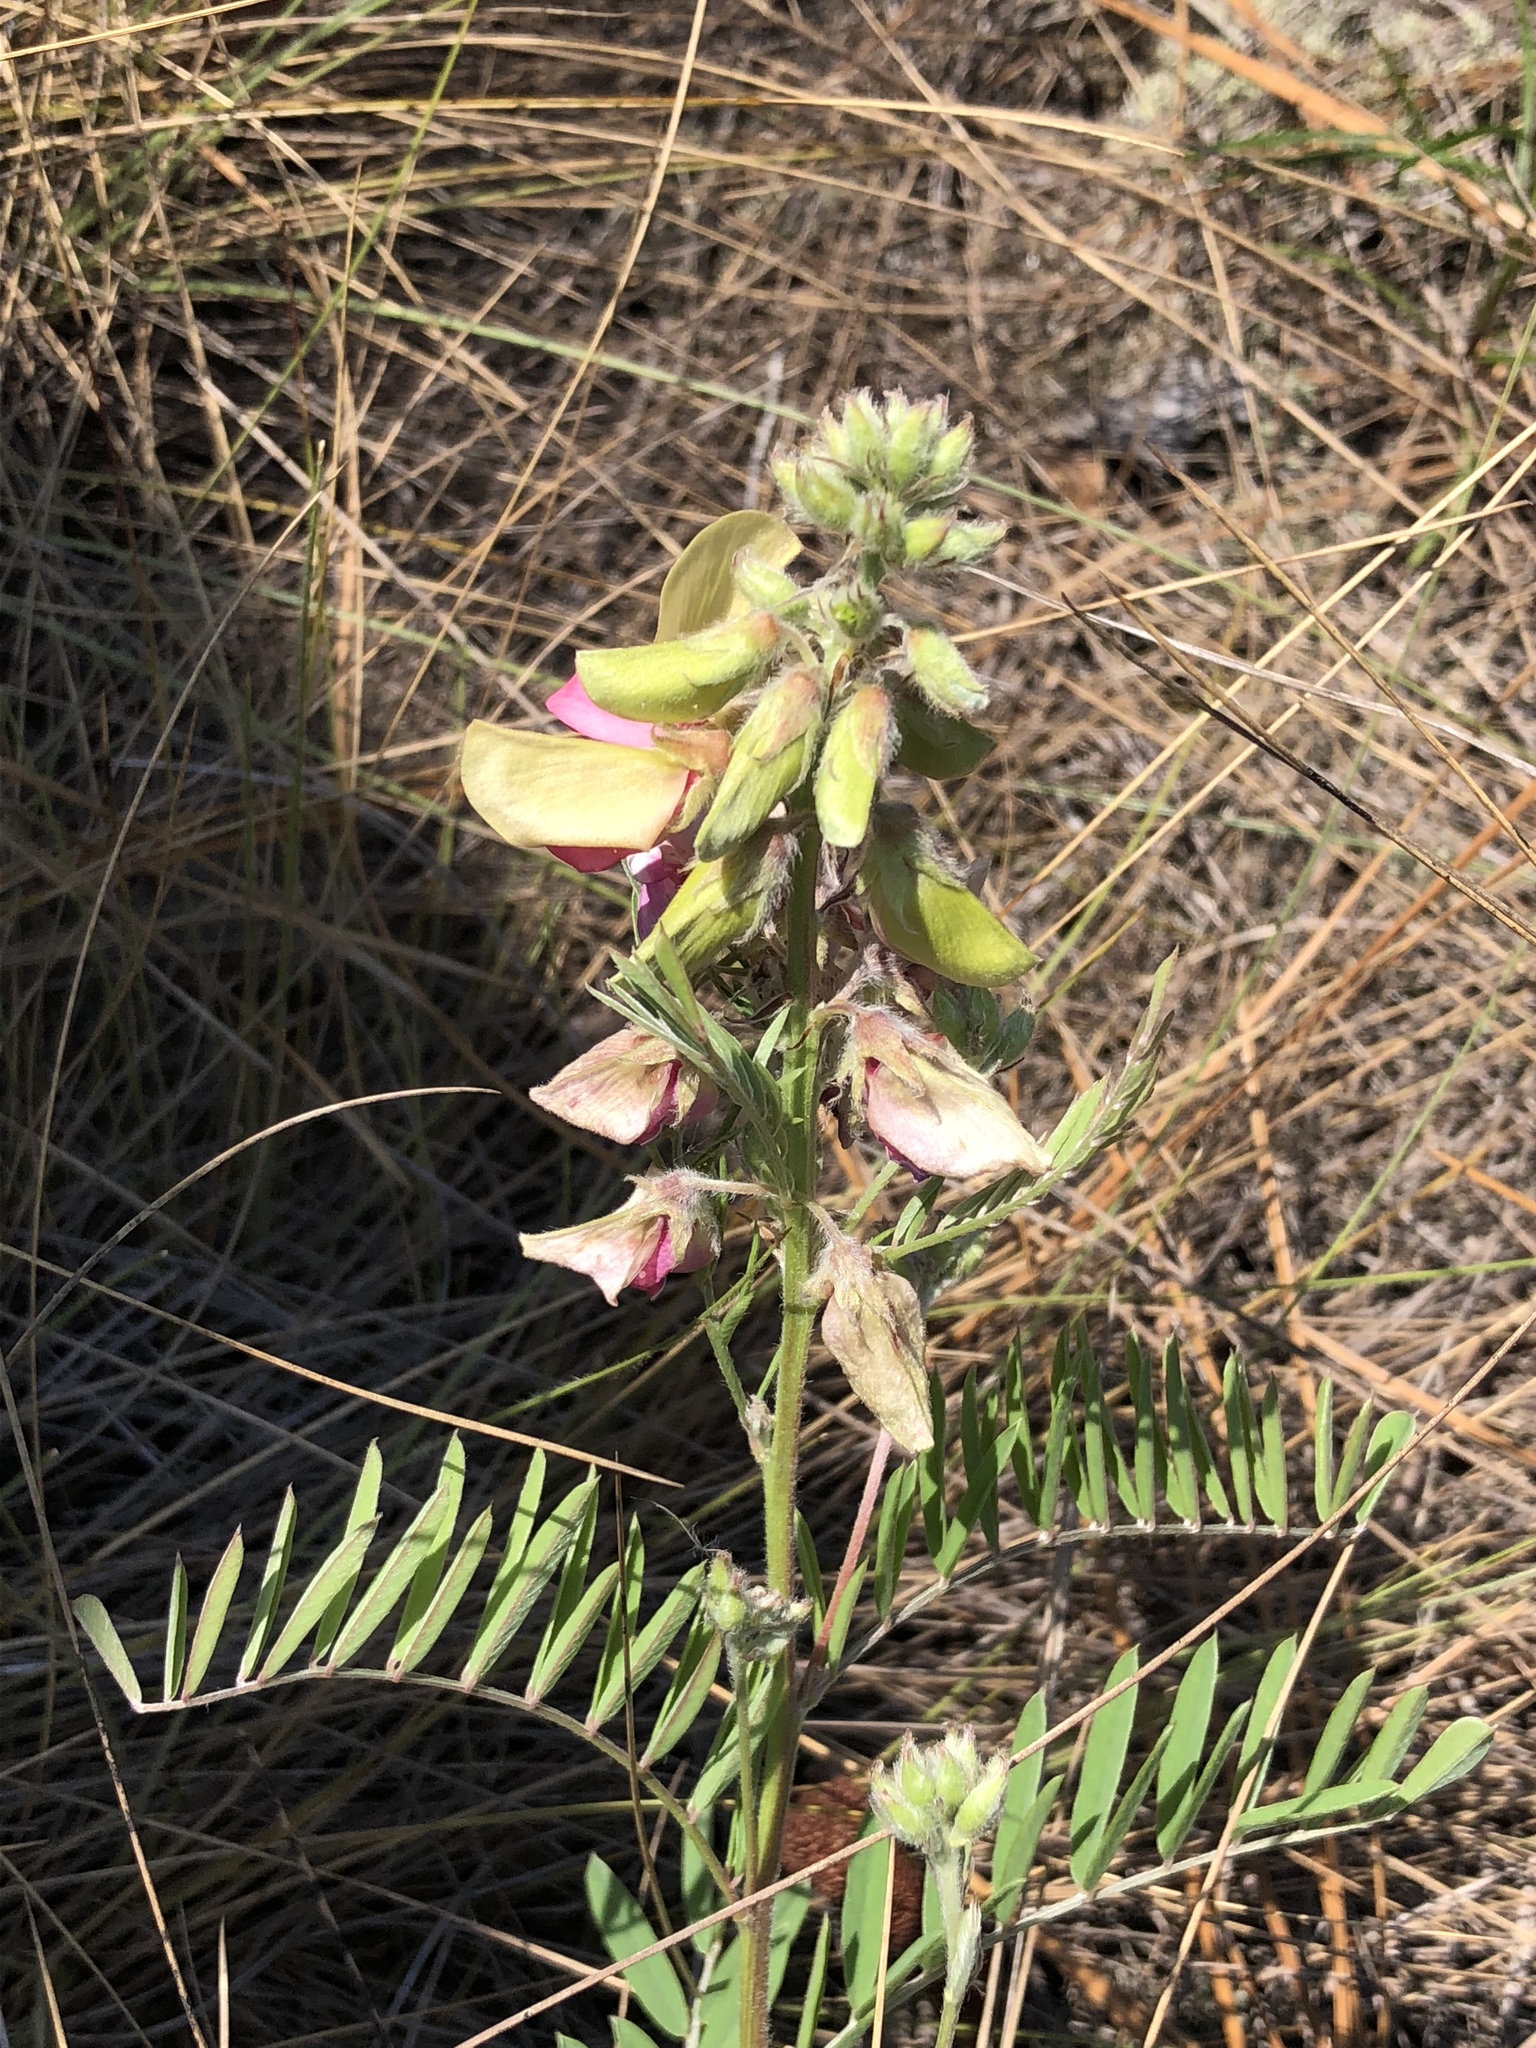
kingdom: Plantae
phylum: Tracheophyta
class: Magnoliopsida
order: Fabales
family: Fabaceae
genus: Tephrosia
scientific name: Tephrosia virginiana
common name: Rabbit-pea
